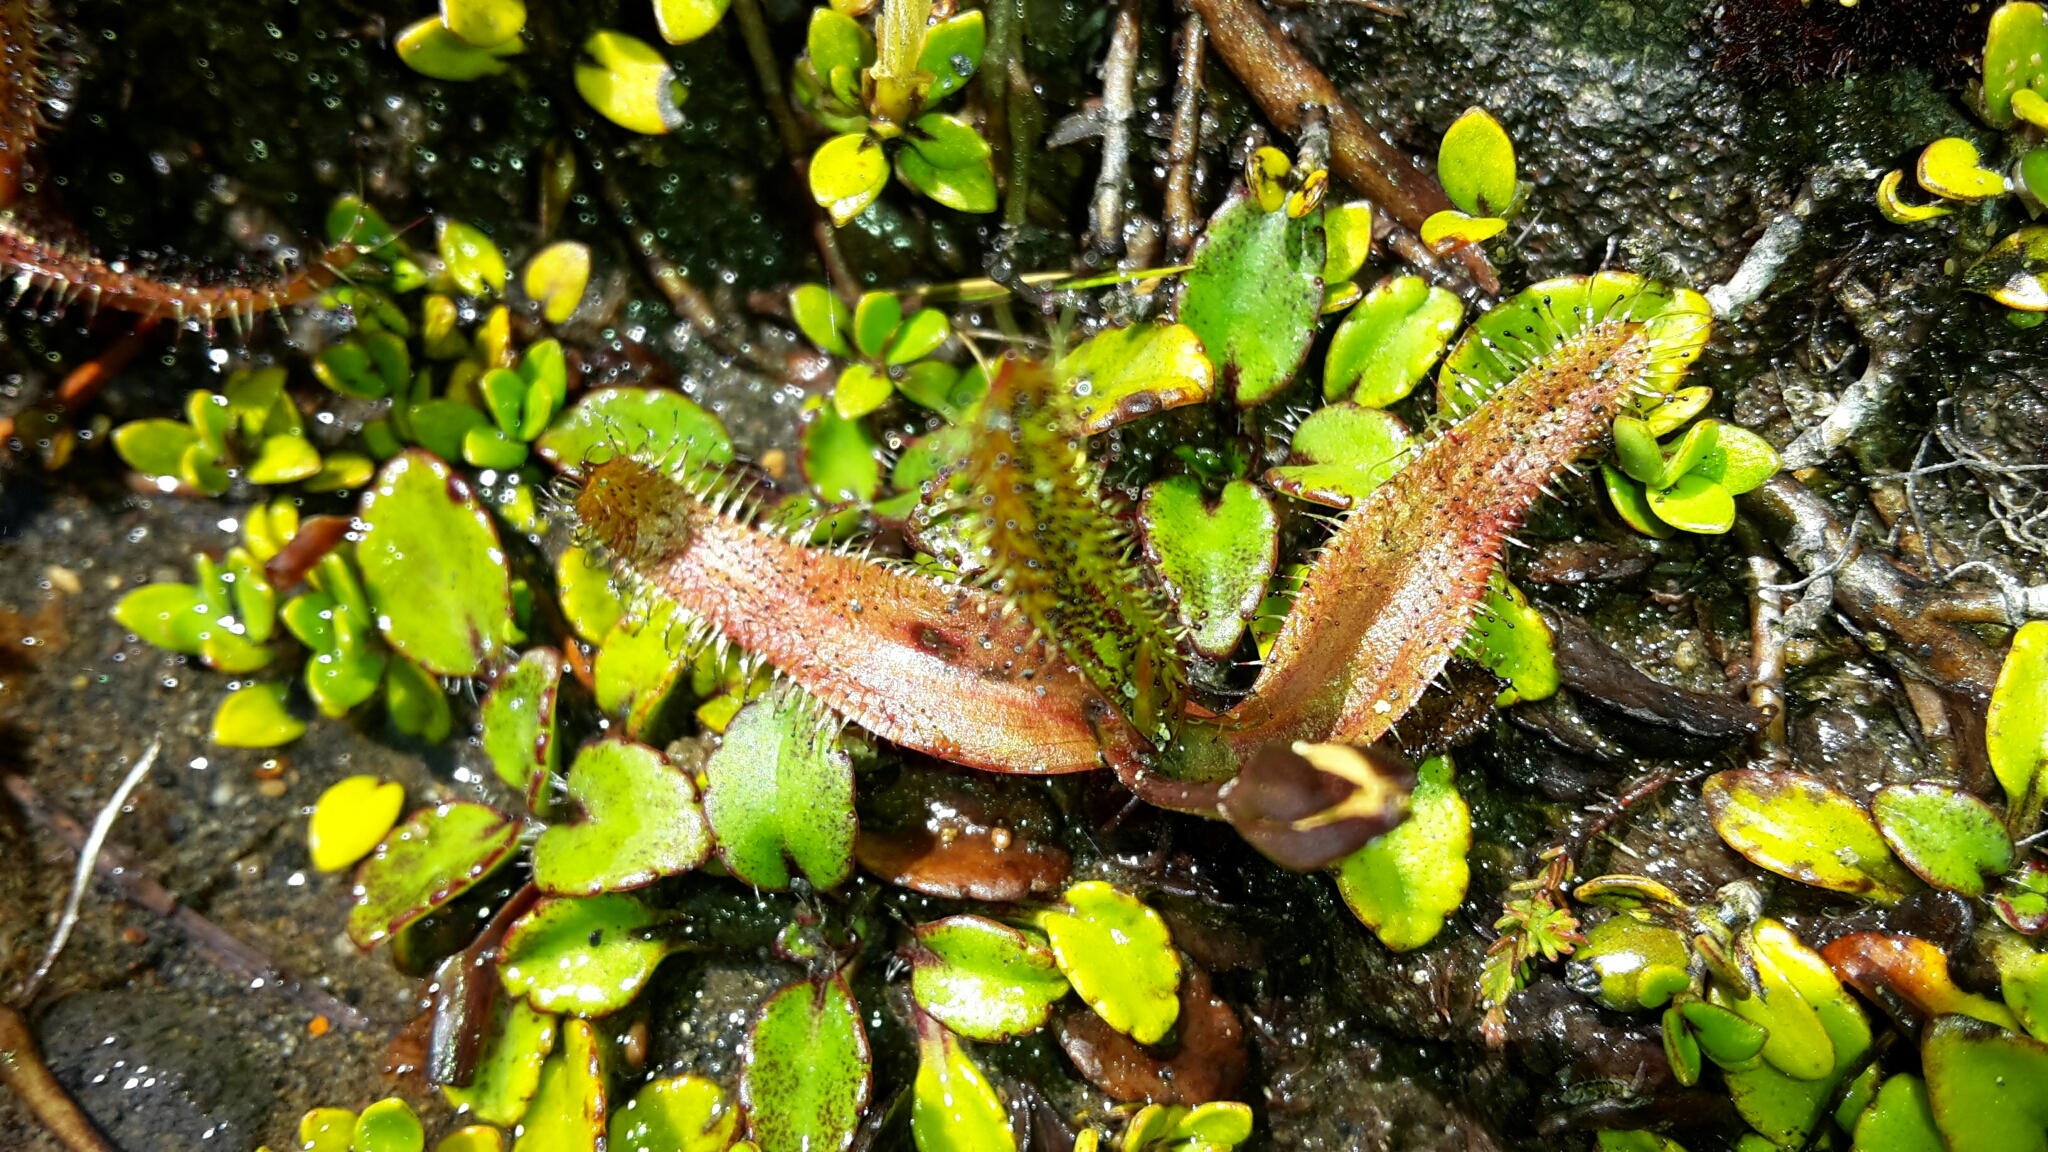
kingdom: Plantae
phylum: Tracheophyta
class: Magnoliopsida
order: Caryophyllales
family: Droseraceae
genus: Drosera
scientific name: Drosera arcturi
